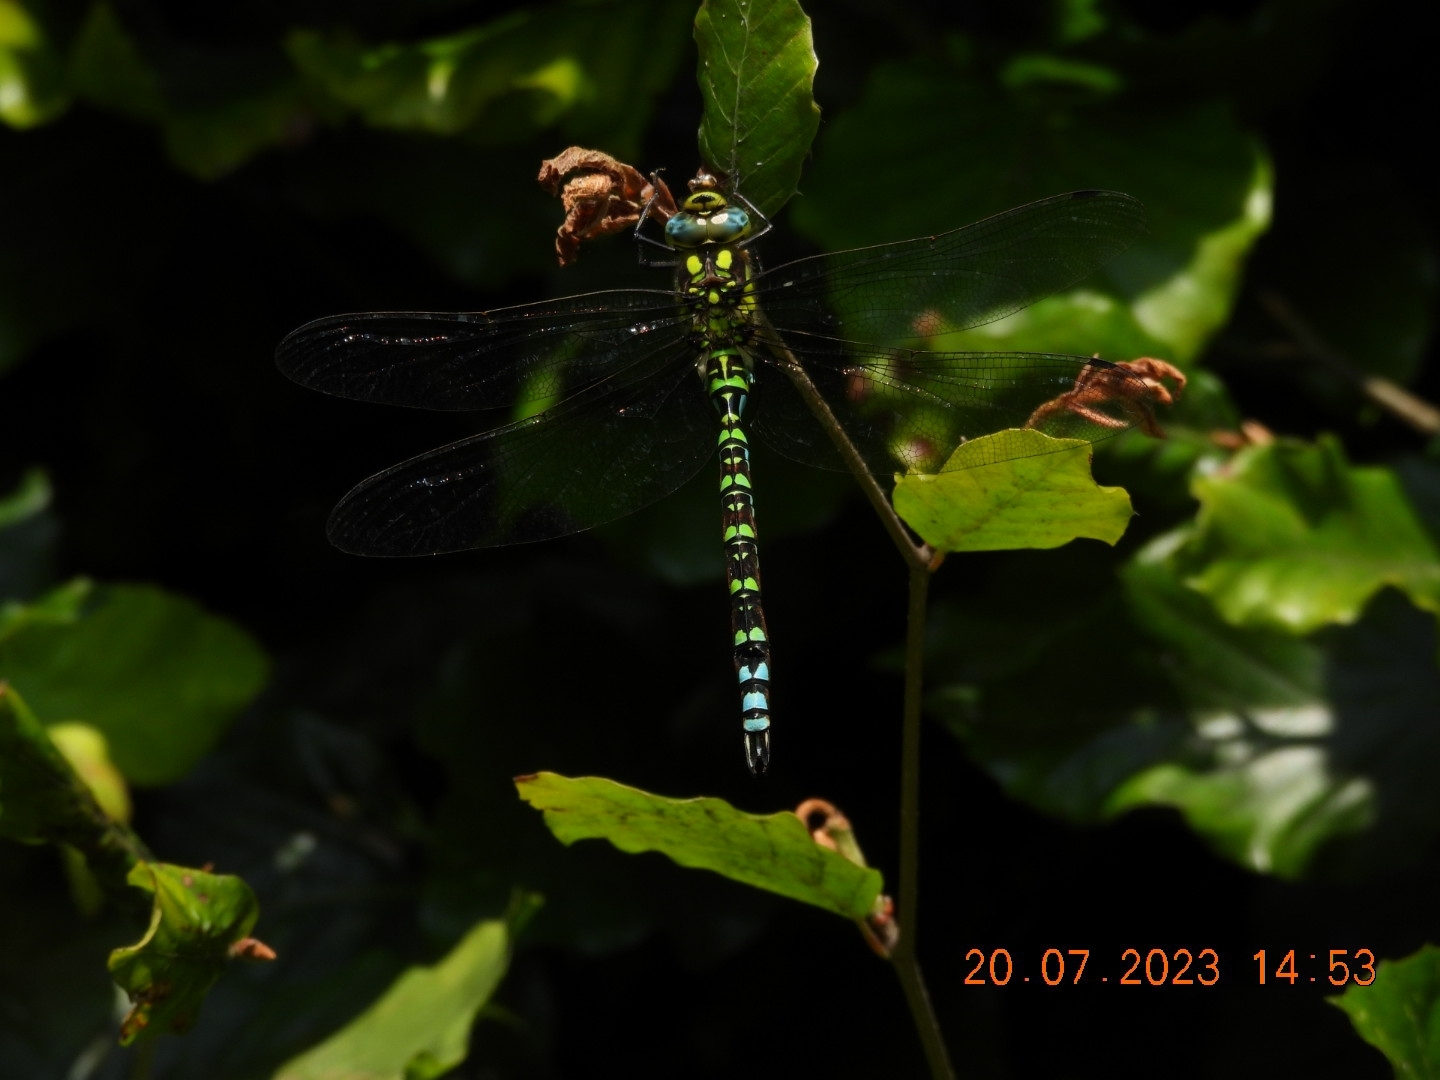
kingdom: Animalia
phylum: Arthropoda
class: Insecta
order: Odonata
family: Aeshnidae
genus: Aeshna
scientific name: Aeshna cyanea
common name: Southern hawker
